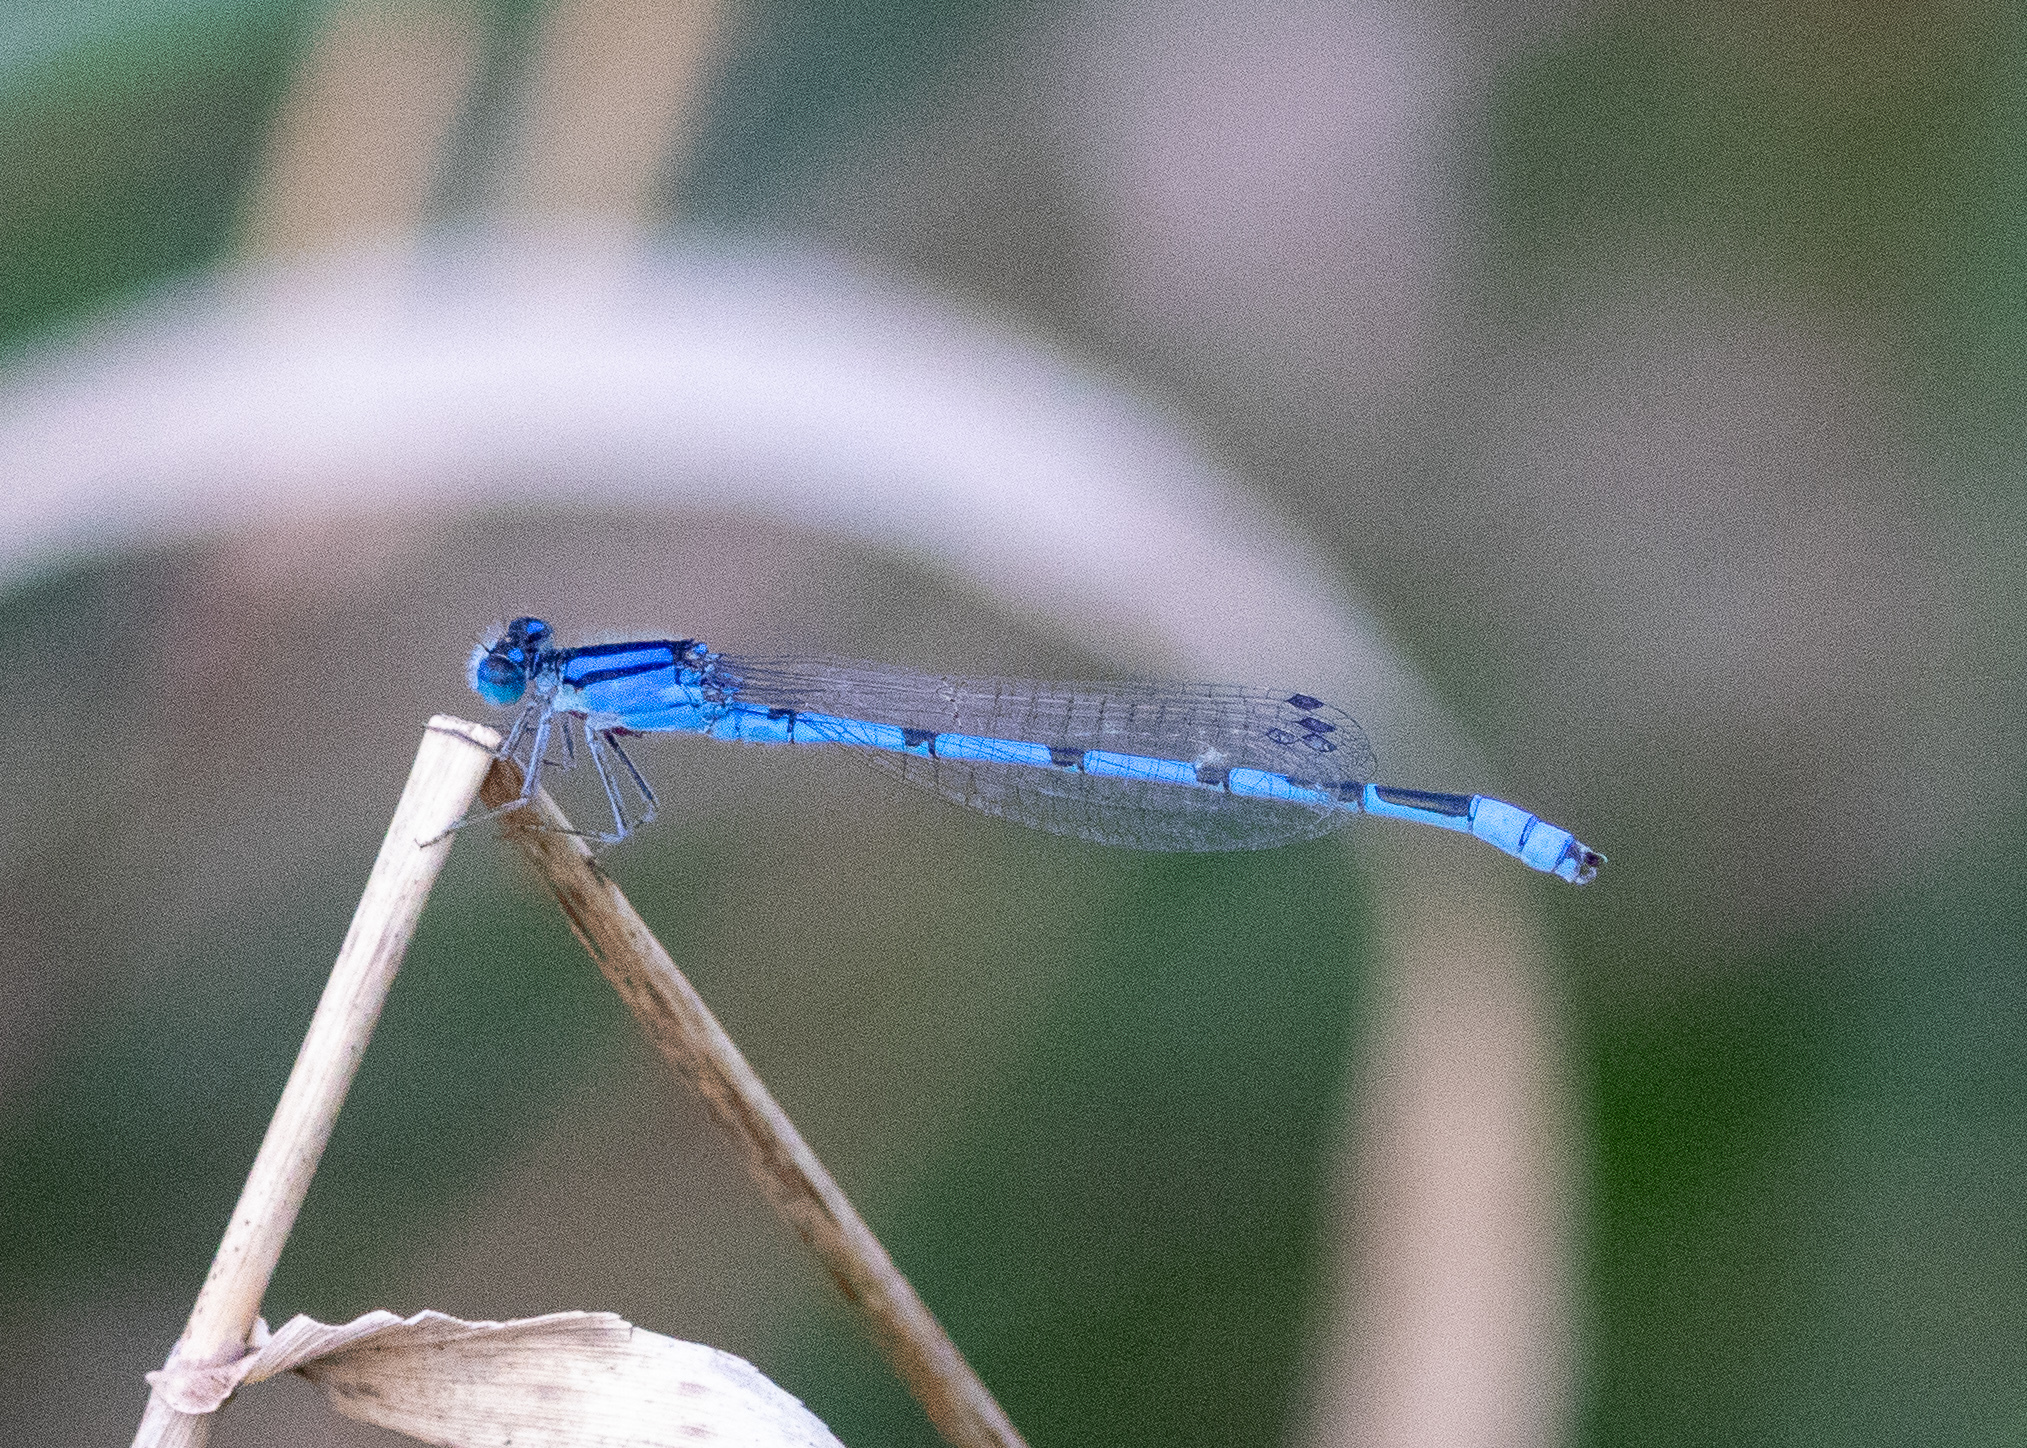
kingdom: Animalia
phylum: Arthropoda
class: Insecta
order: Odonata
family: Coenagrionidae
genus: Enallagma
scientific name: Enallagma civile
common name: Damselfly
